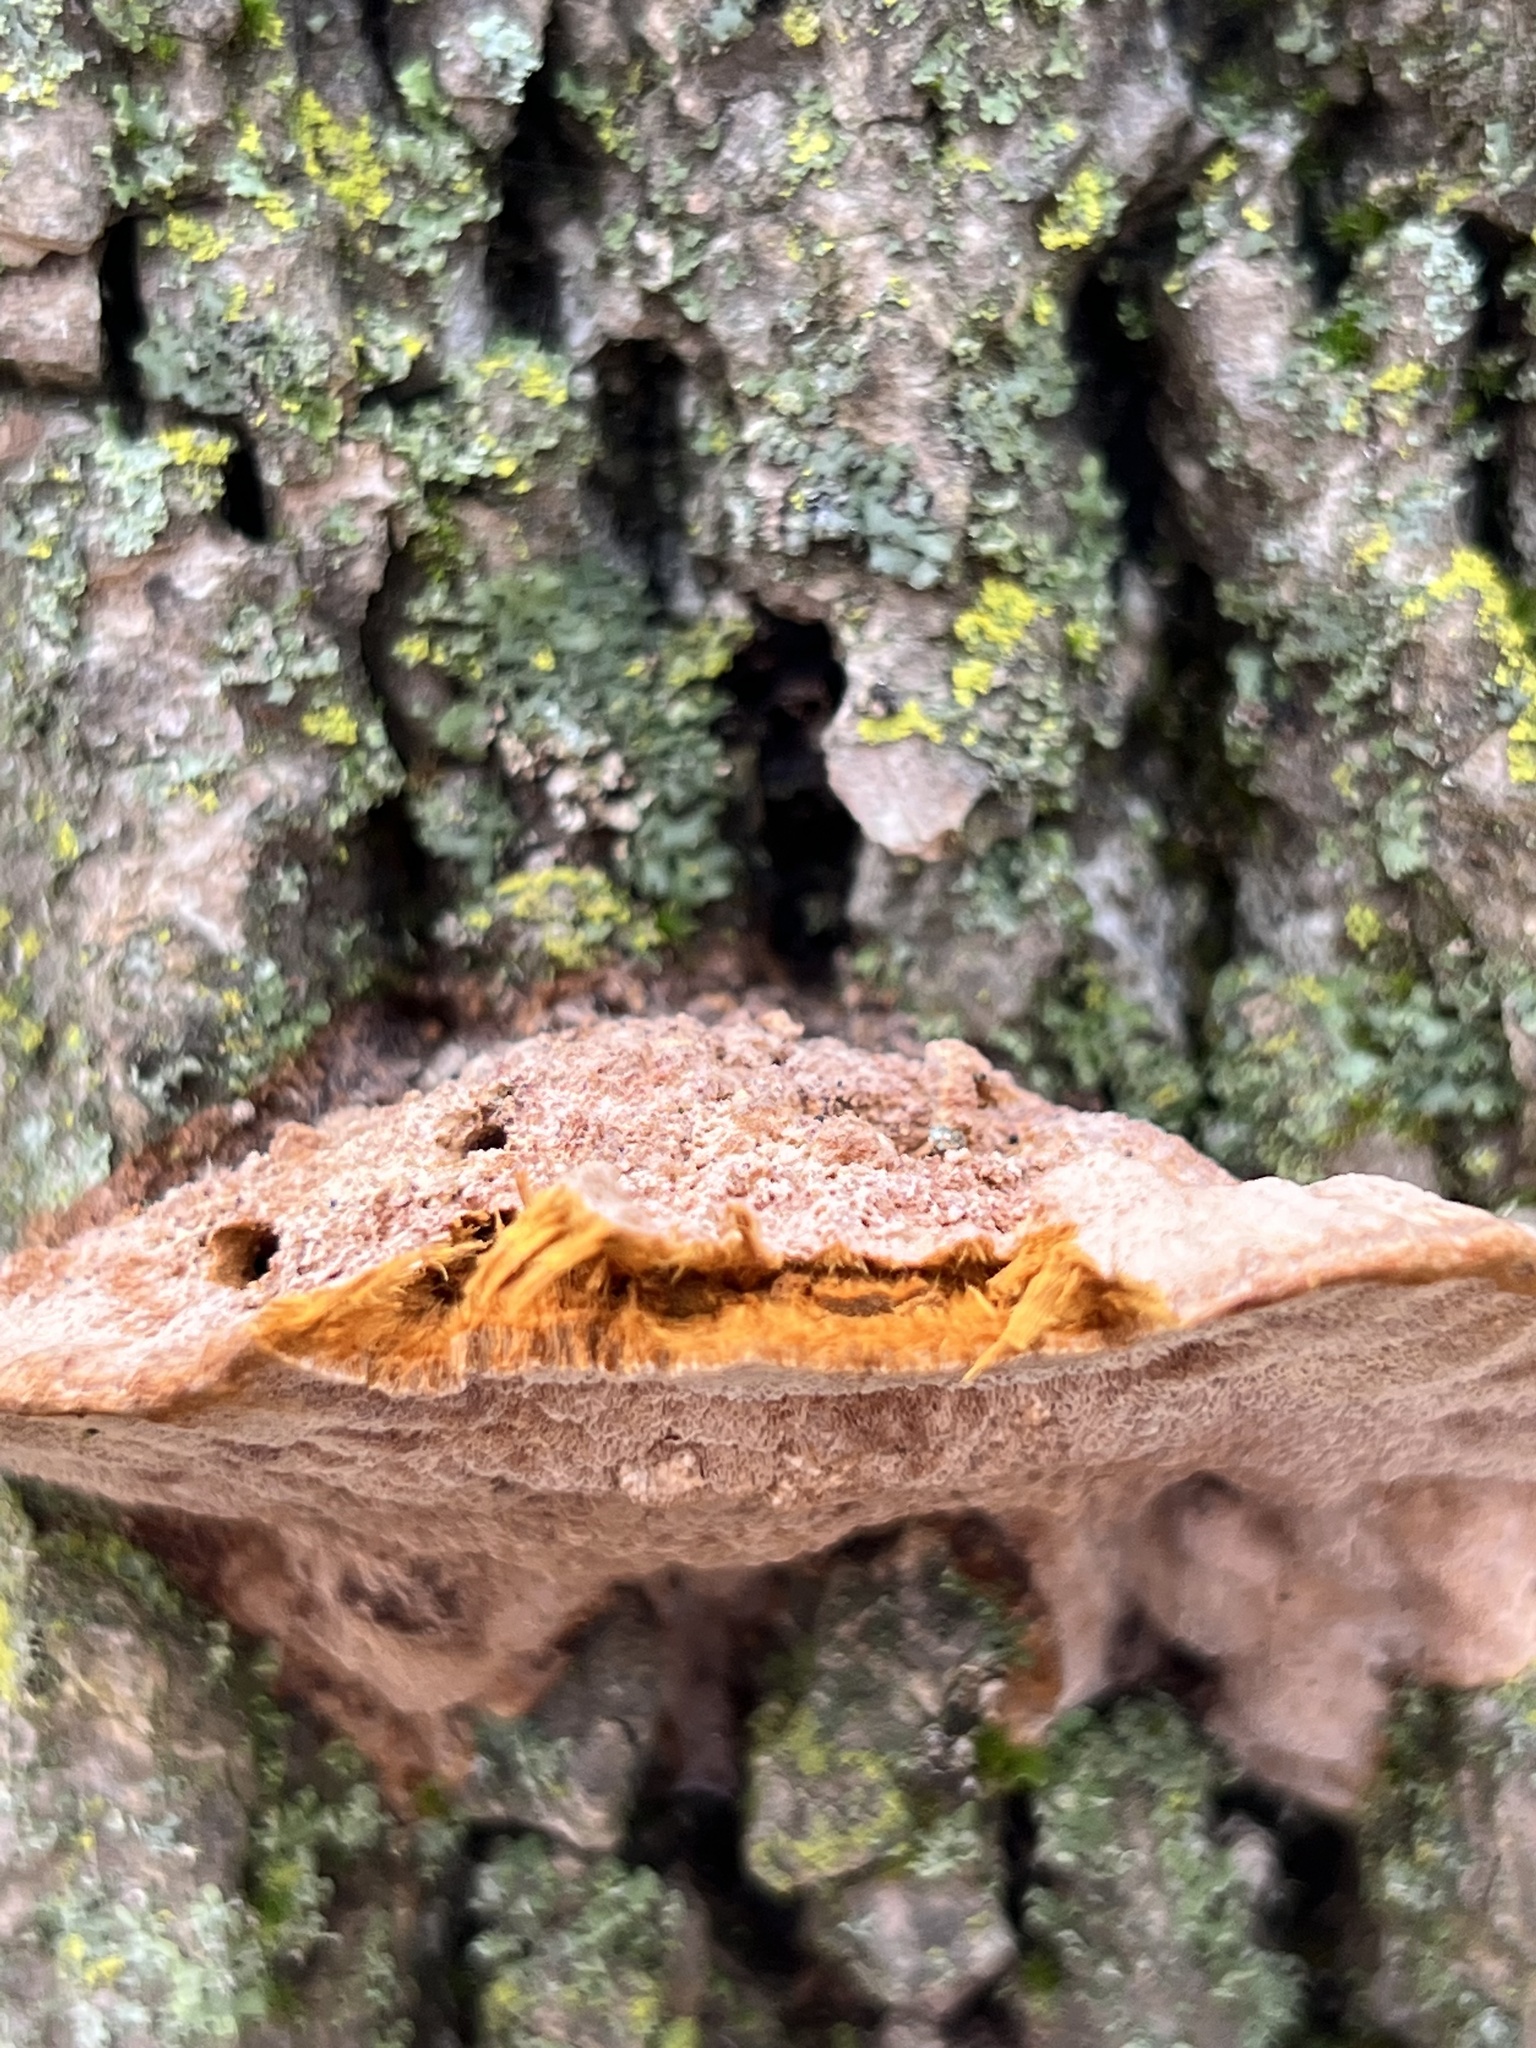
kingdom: Fungi
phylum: Basidiomycota
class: Agaricomycetes
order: Hymenochaetales
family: Hymenochaetaceae
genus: Phellinus
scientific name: Phellinus gilvus
